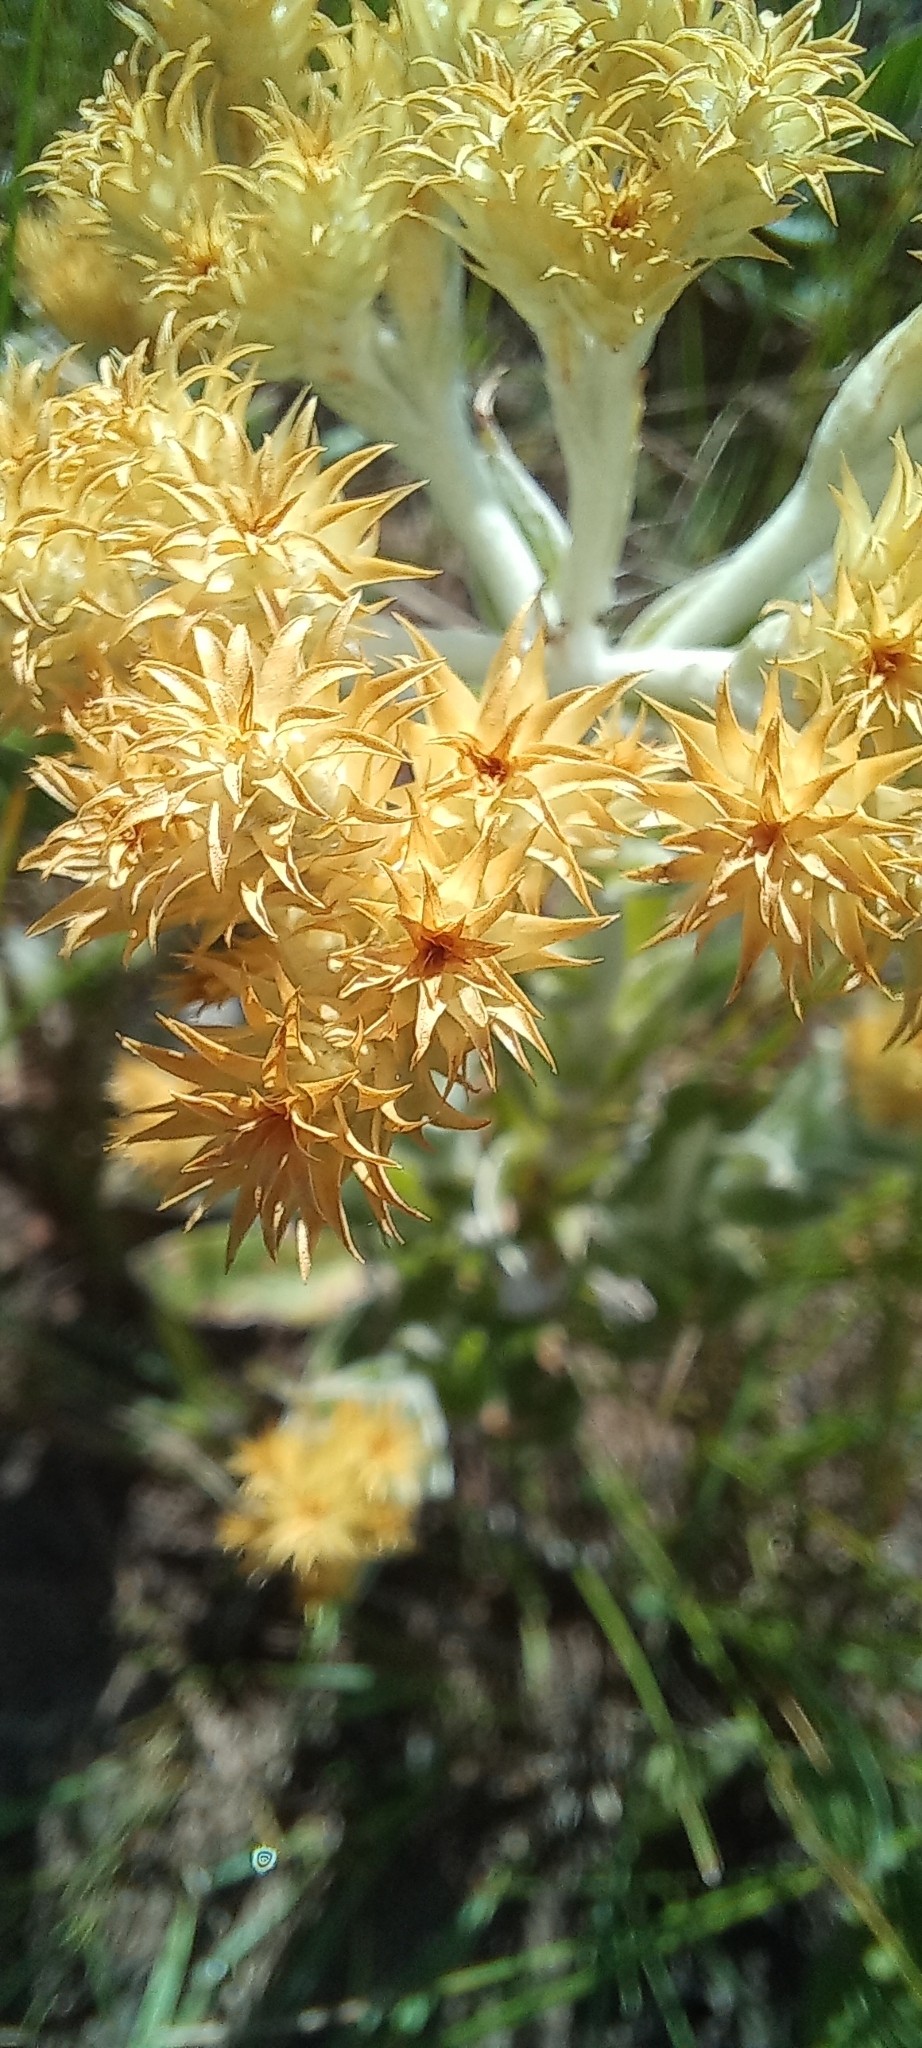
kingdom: Plantae
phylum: Tracheophyta
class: Magnoliopsida
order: Asterales
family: Asteraceae
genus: Helichrysum
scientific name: Helichrysum appendiculatum
